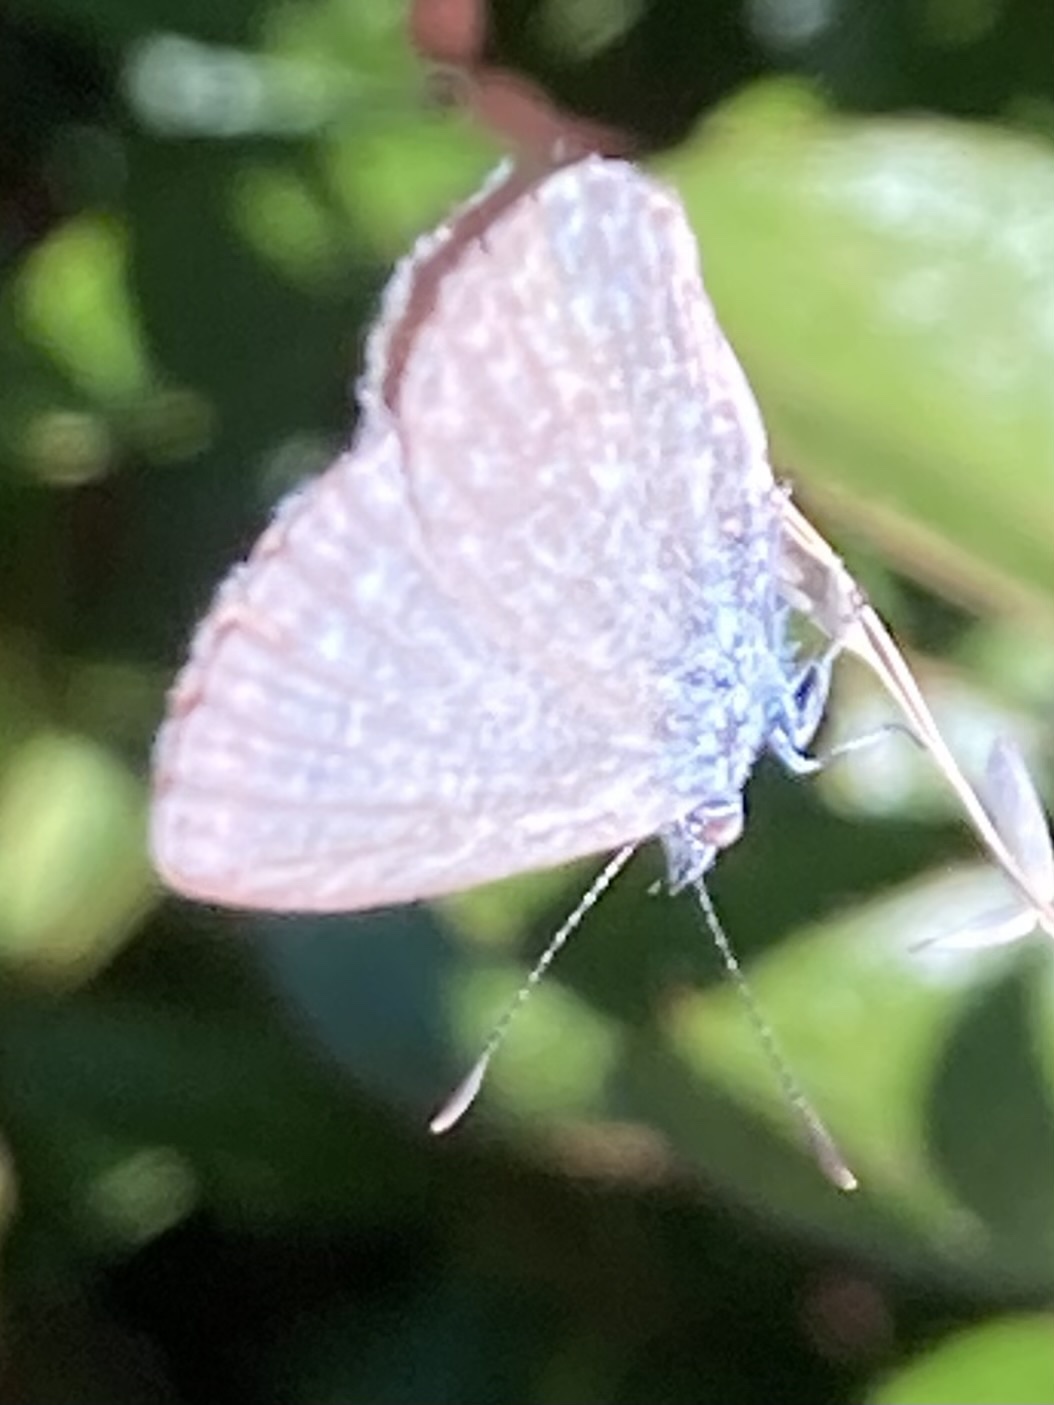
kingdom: Animalia
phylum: Arthropoda
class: Insecta
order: Lepidoptera
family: Lycaenidae
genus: Zizina
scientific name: Zizina labradus
